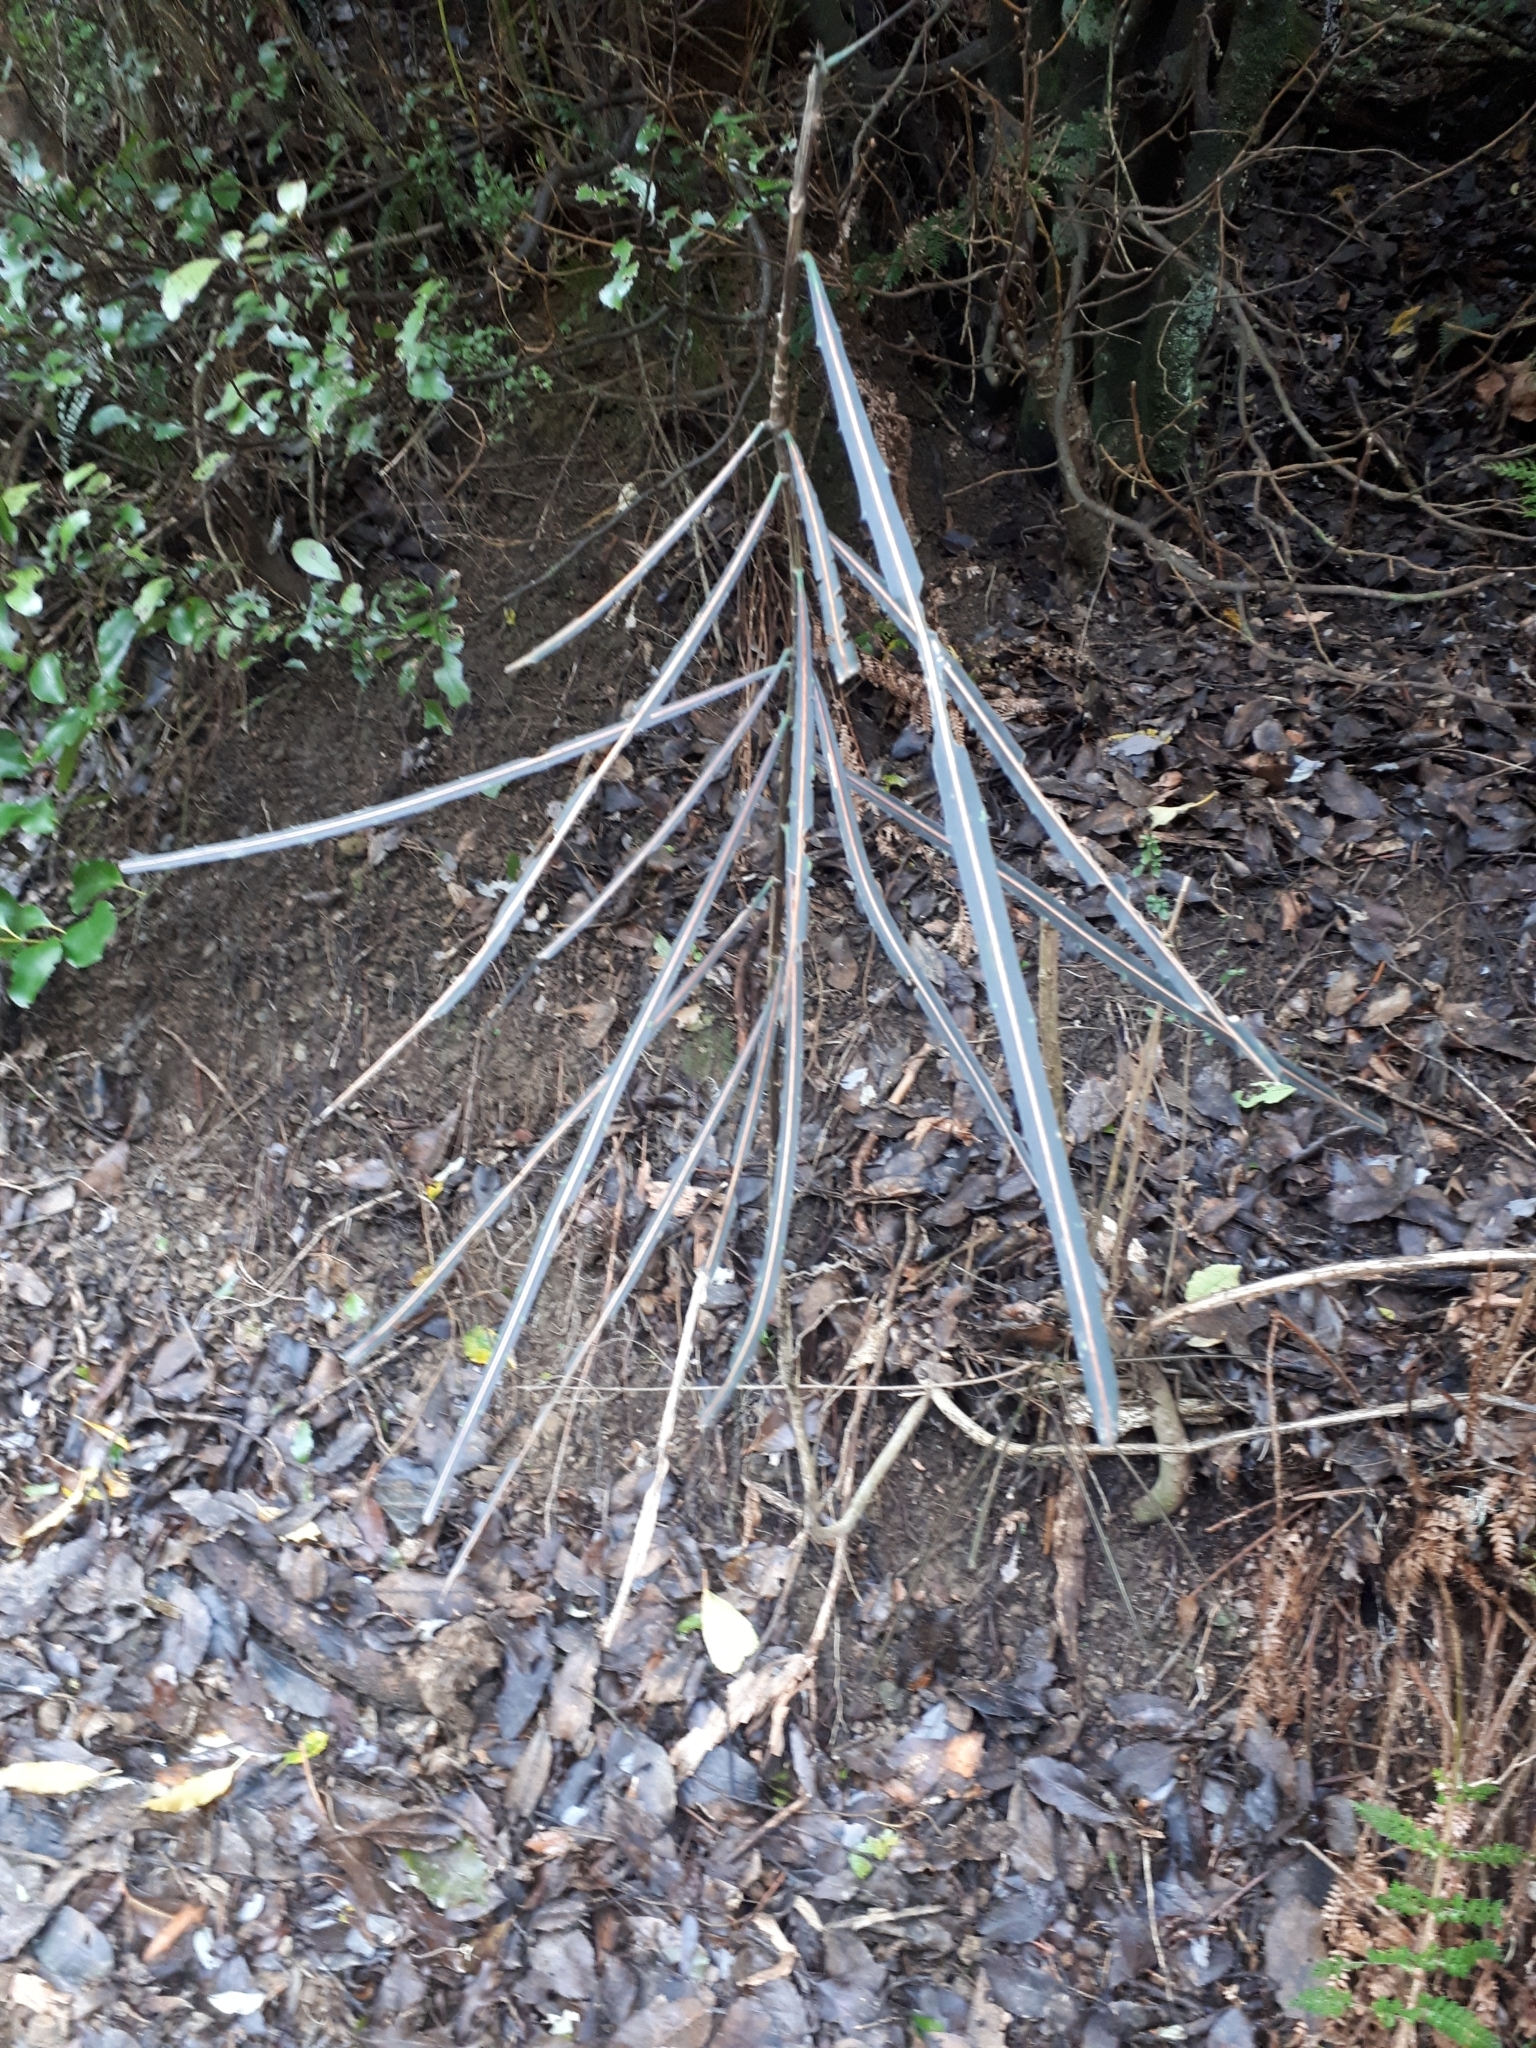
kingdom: Plantae
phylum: Tracheophyta
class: Magnoliopsida
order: Apiales
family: Araliaceae
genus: Pseudopanax
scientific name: Pseudopanax crassifolius
